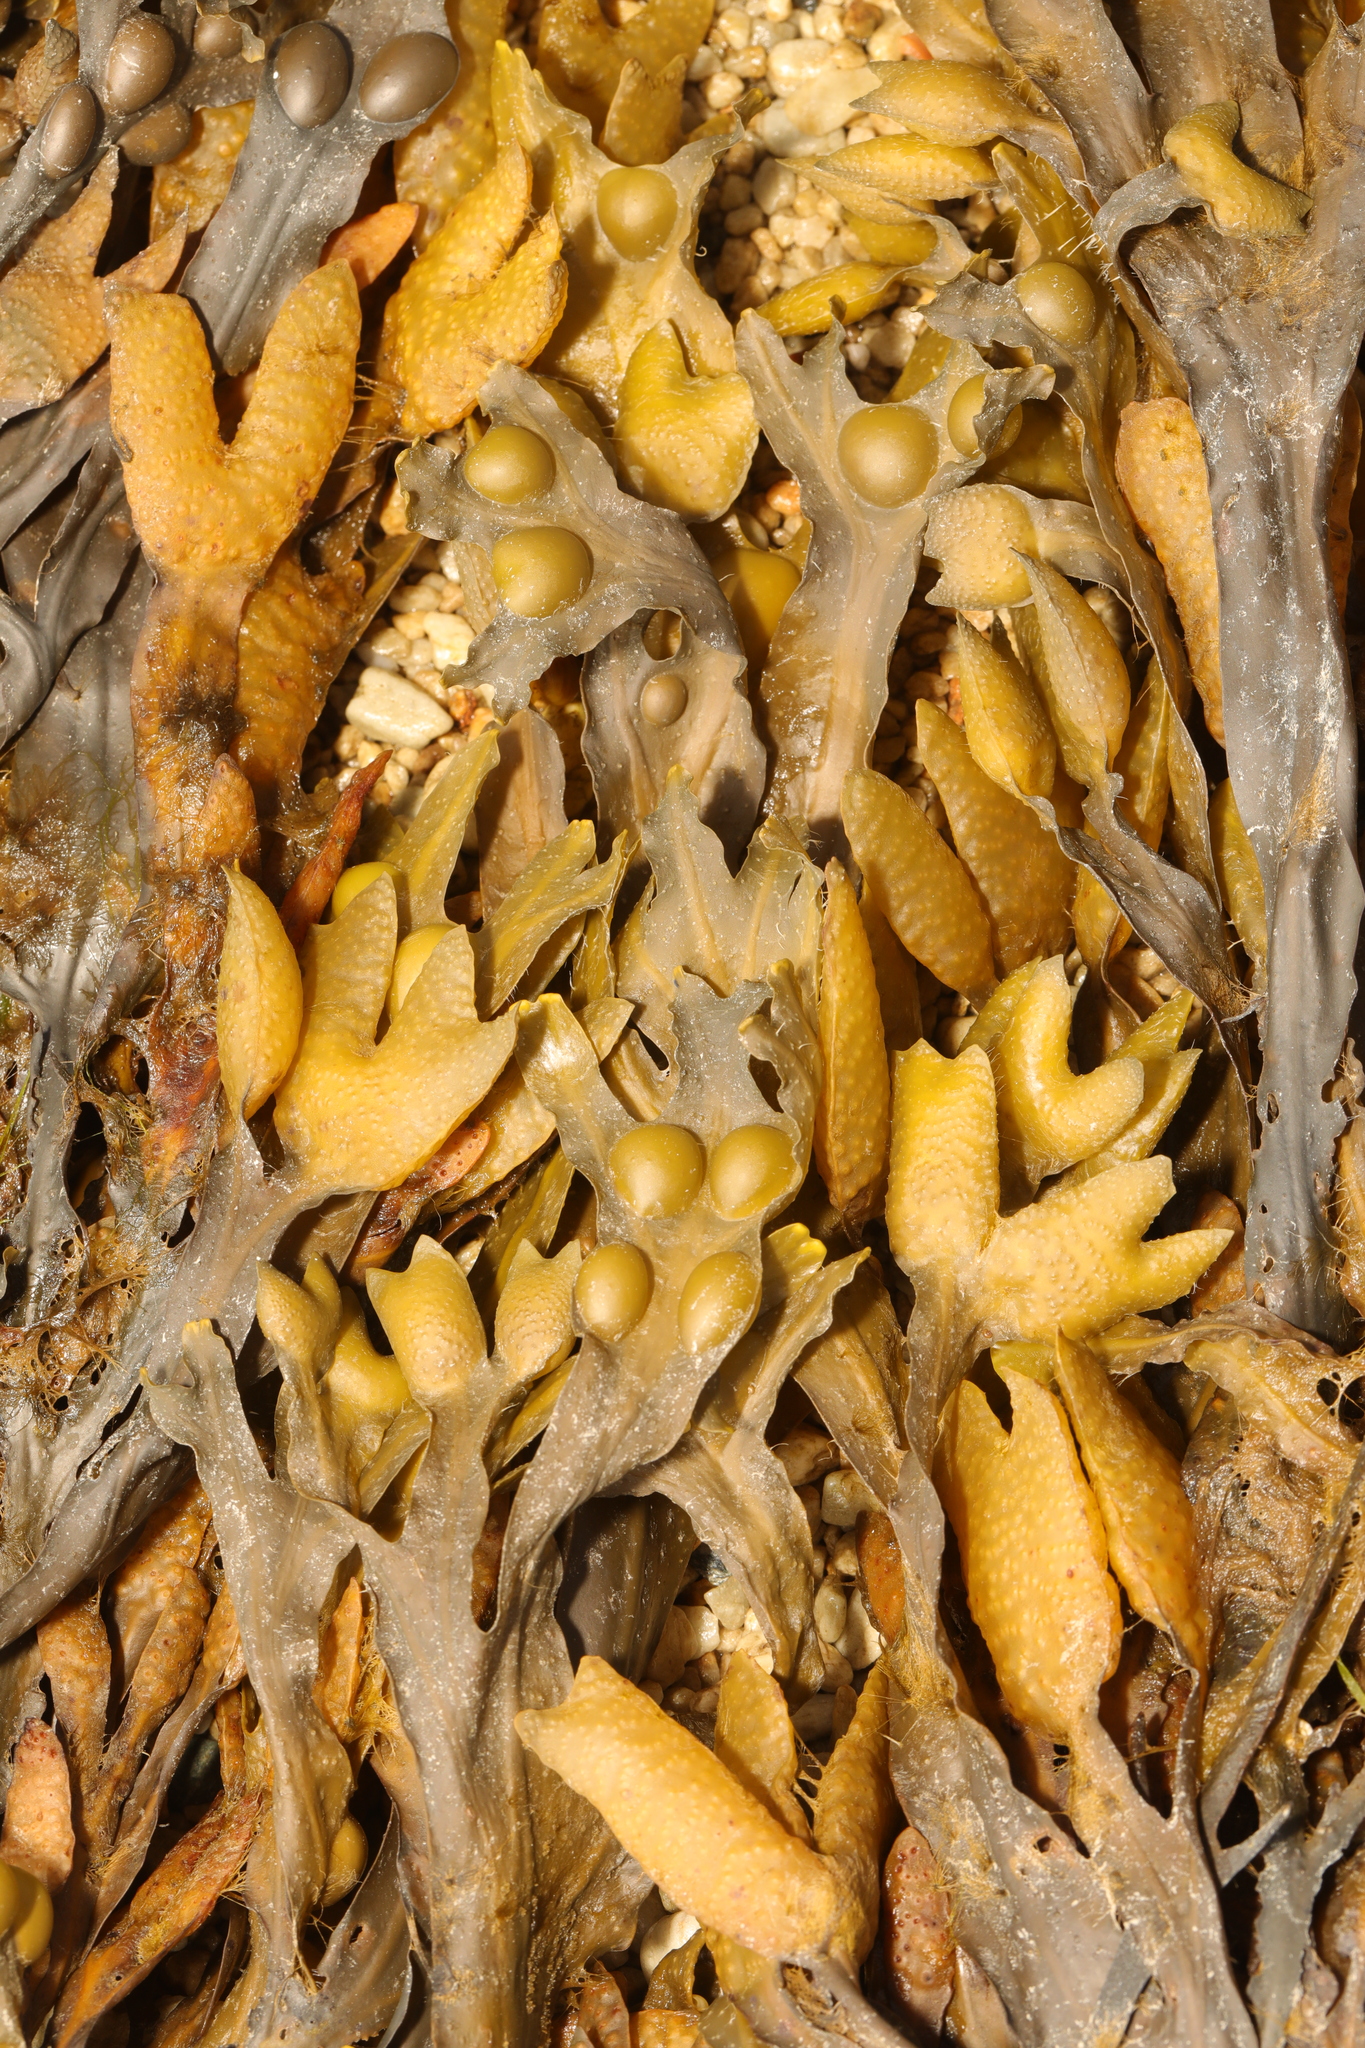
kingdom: Chromista
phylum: Ochrophyta
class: Phaeophyceae
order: Fucales
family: Fucaceae
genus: Fucus
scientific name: Fucus vesiculosus
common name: Bladder wrack
